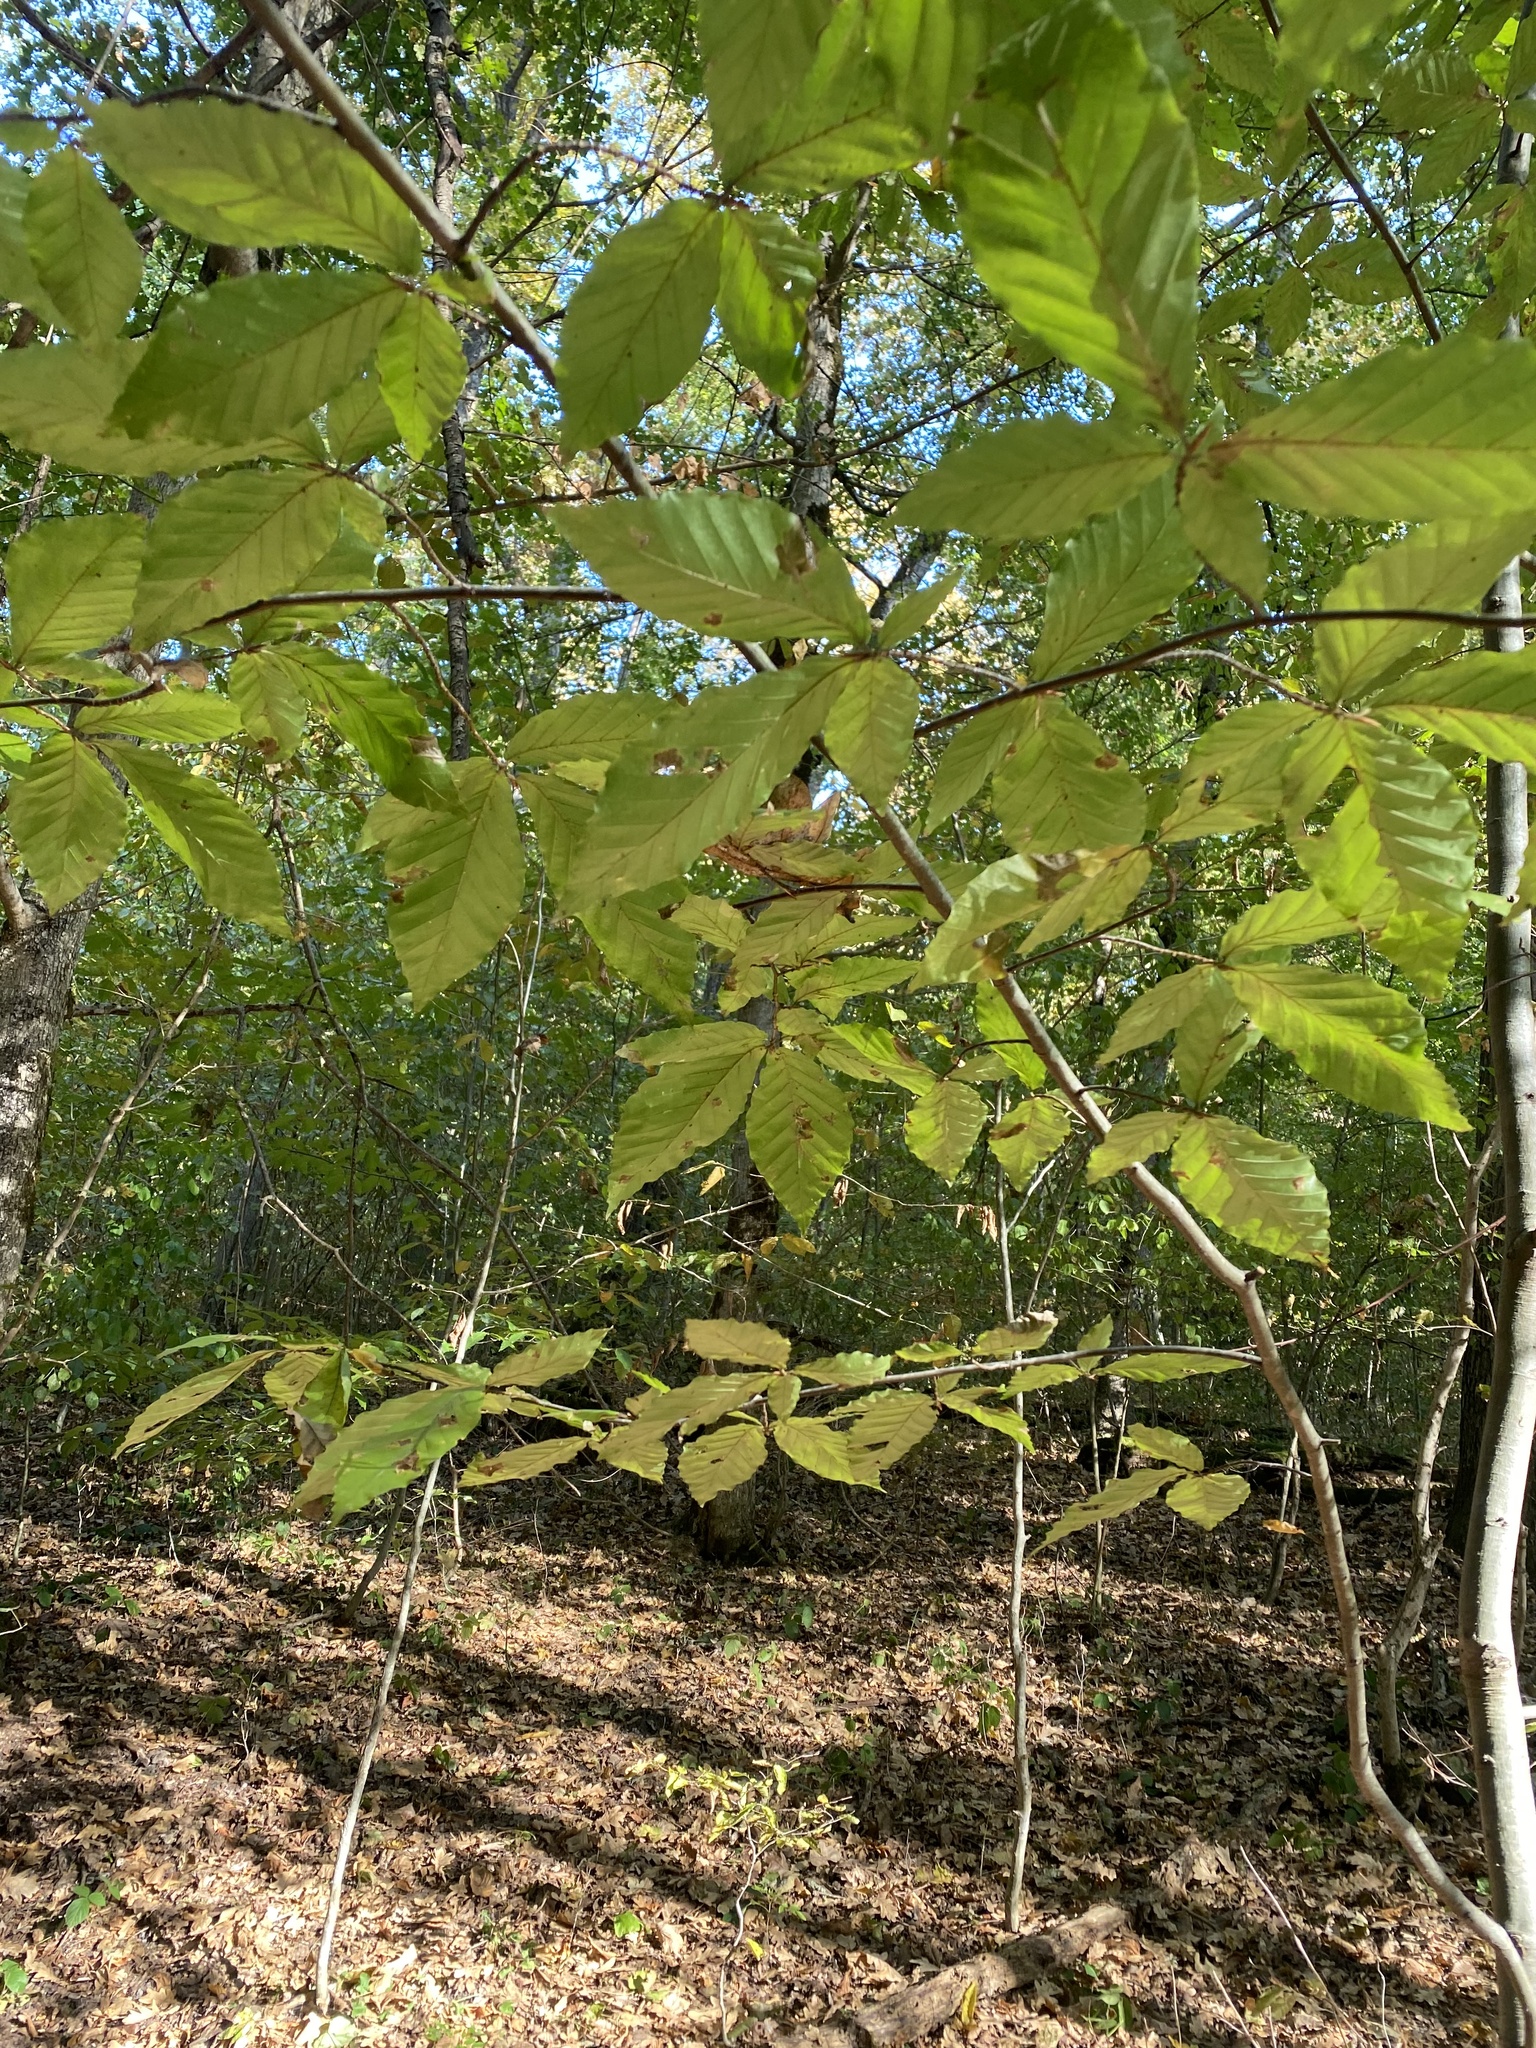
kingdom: Plantae
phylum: Tracheophyta
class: Magnoliopsida
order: Fagales
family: Fagaceae
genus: Fagus
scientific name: Fagus orientalis
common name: Oriental beech
